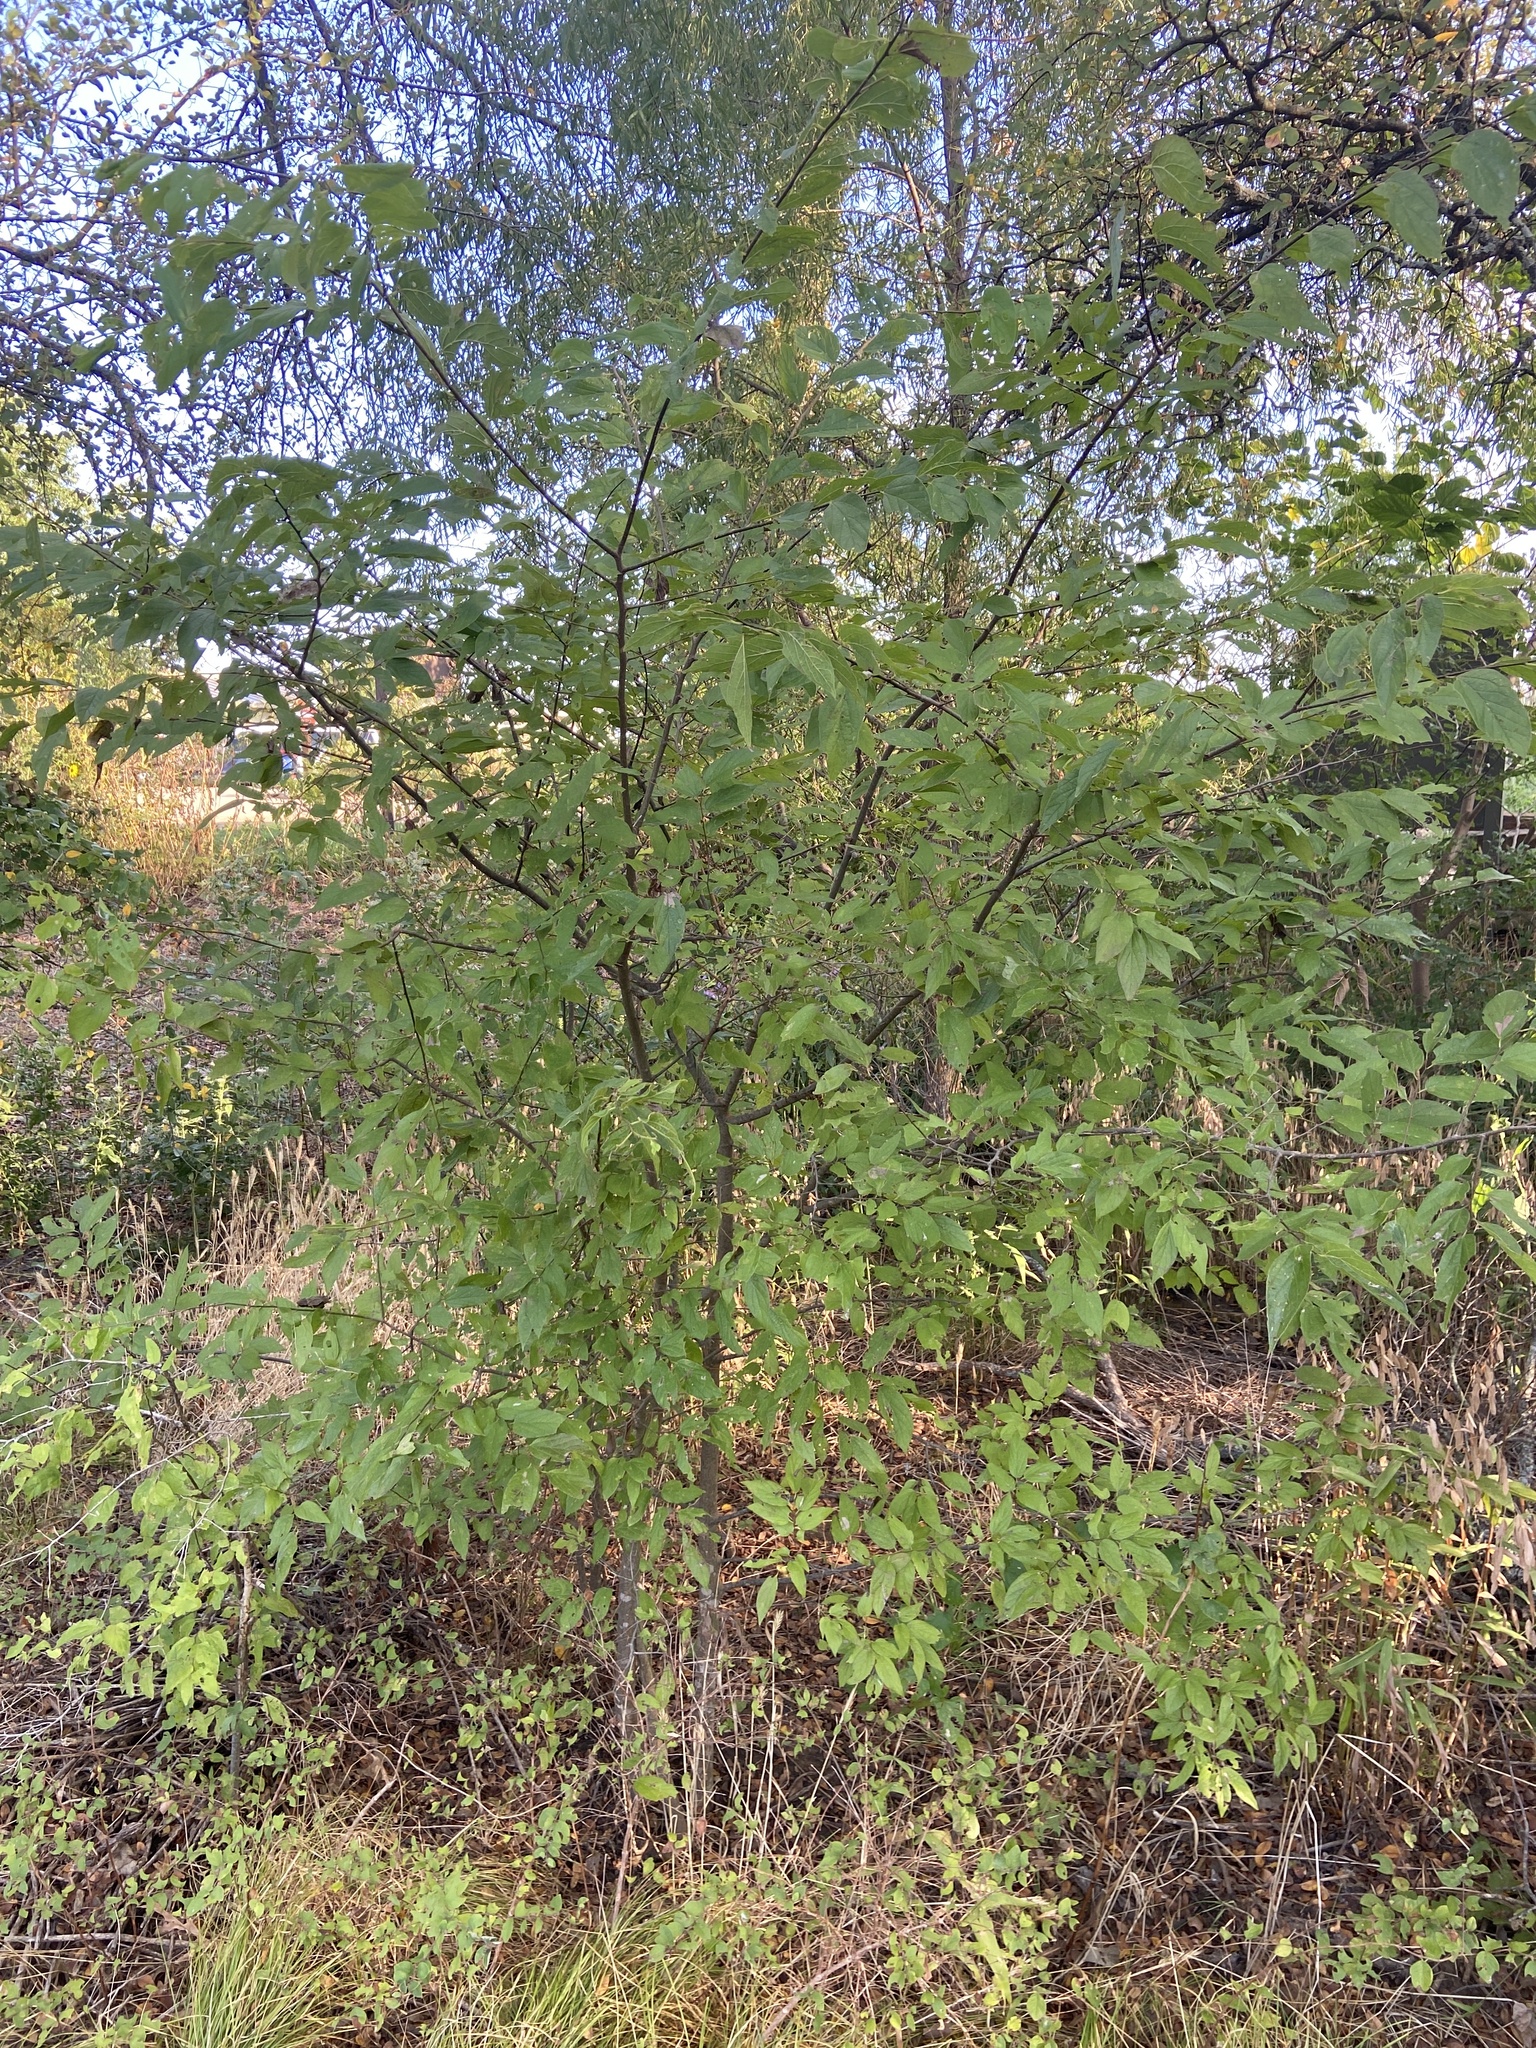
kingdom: Plantae
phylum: Tracheophyta
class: Magnoliopsida
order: Rosales
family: Cannabaceae
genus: Celtis
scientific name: Celtis laevigata
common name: Sugarberry
